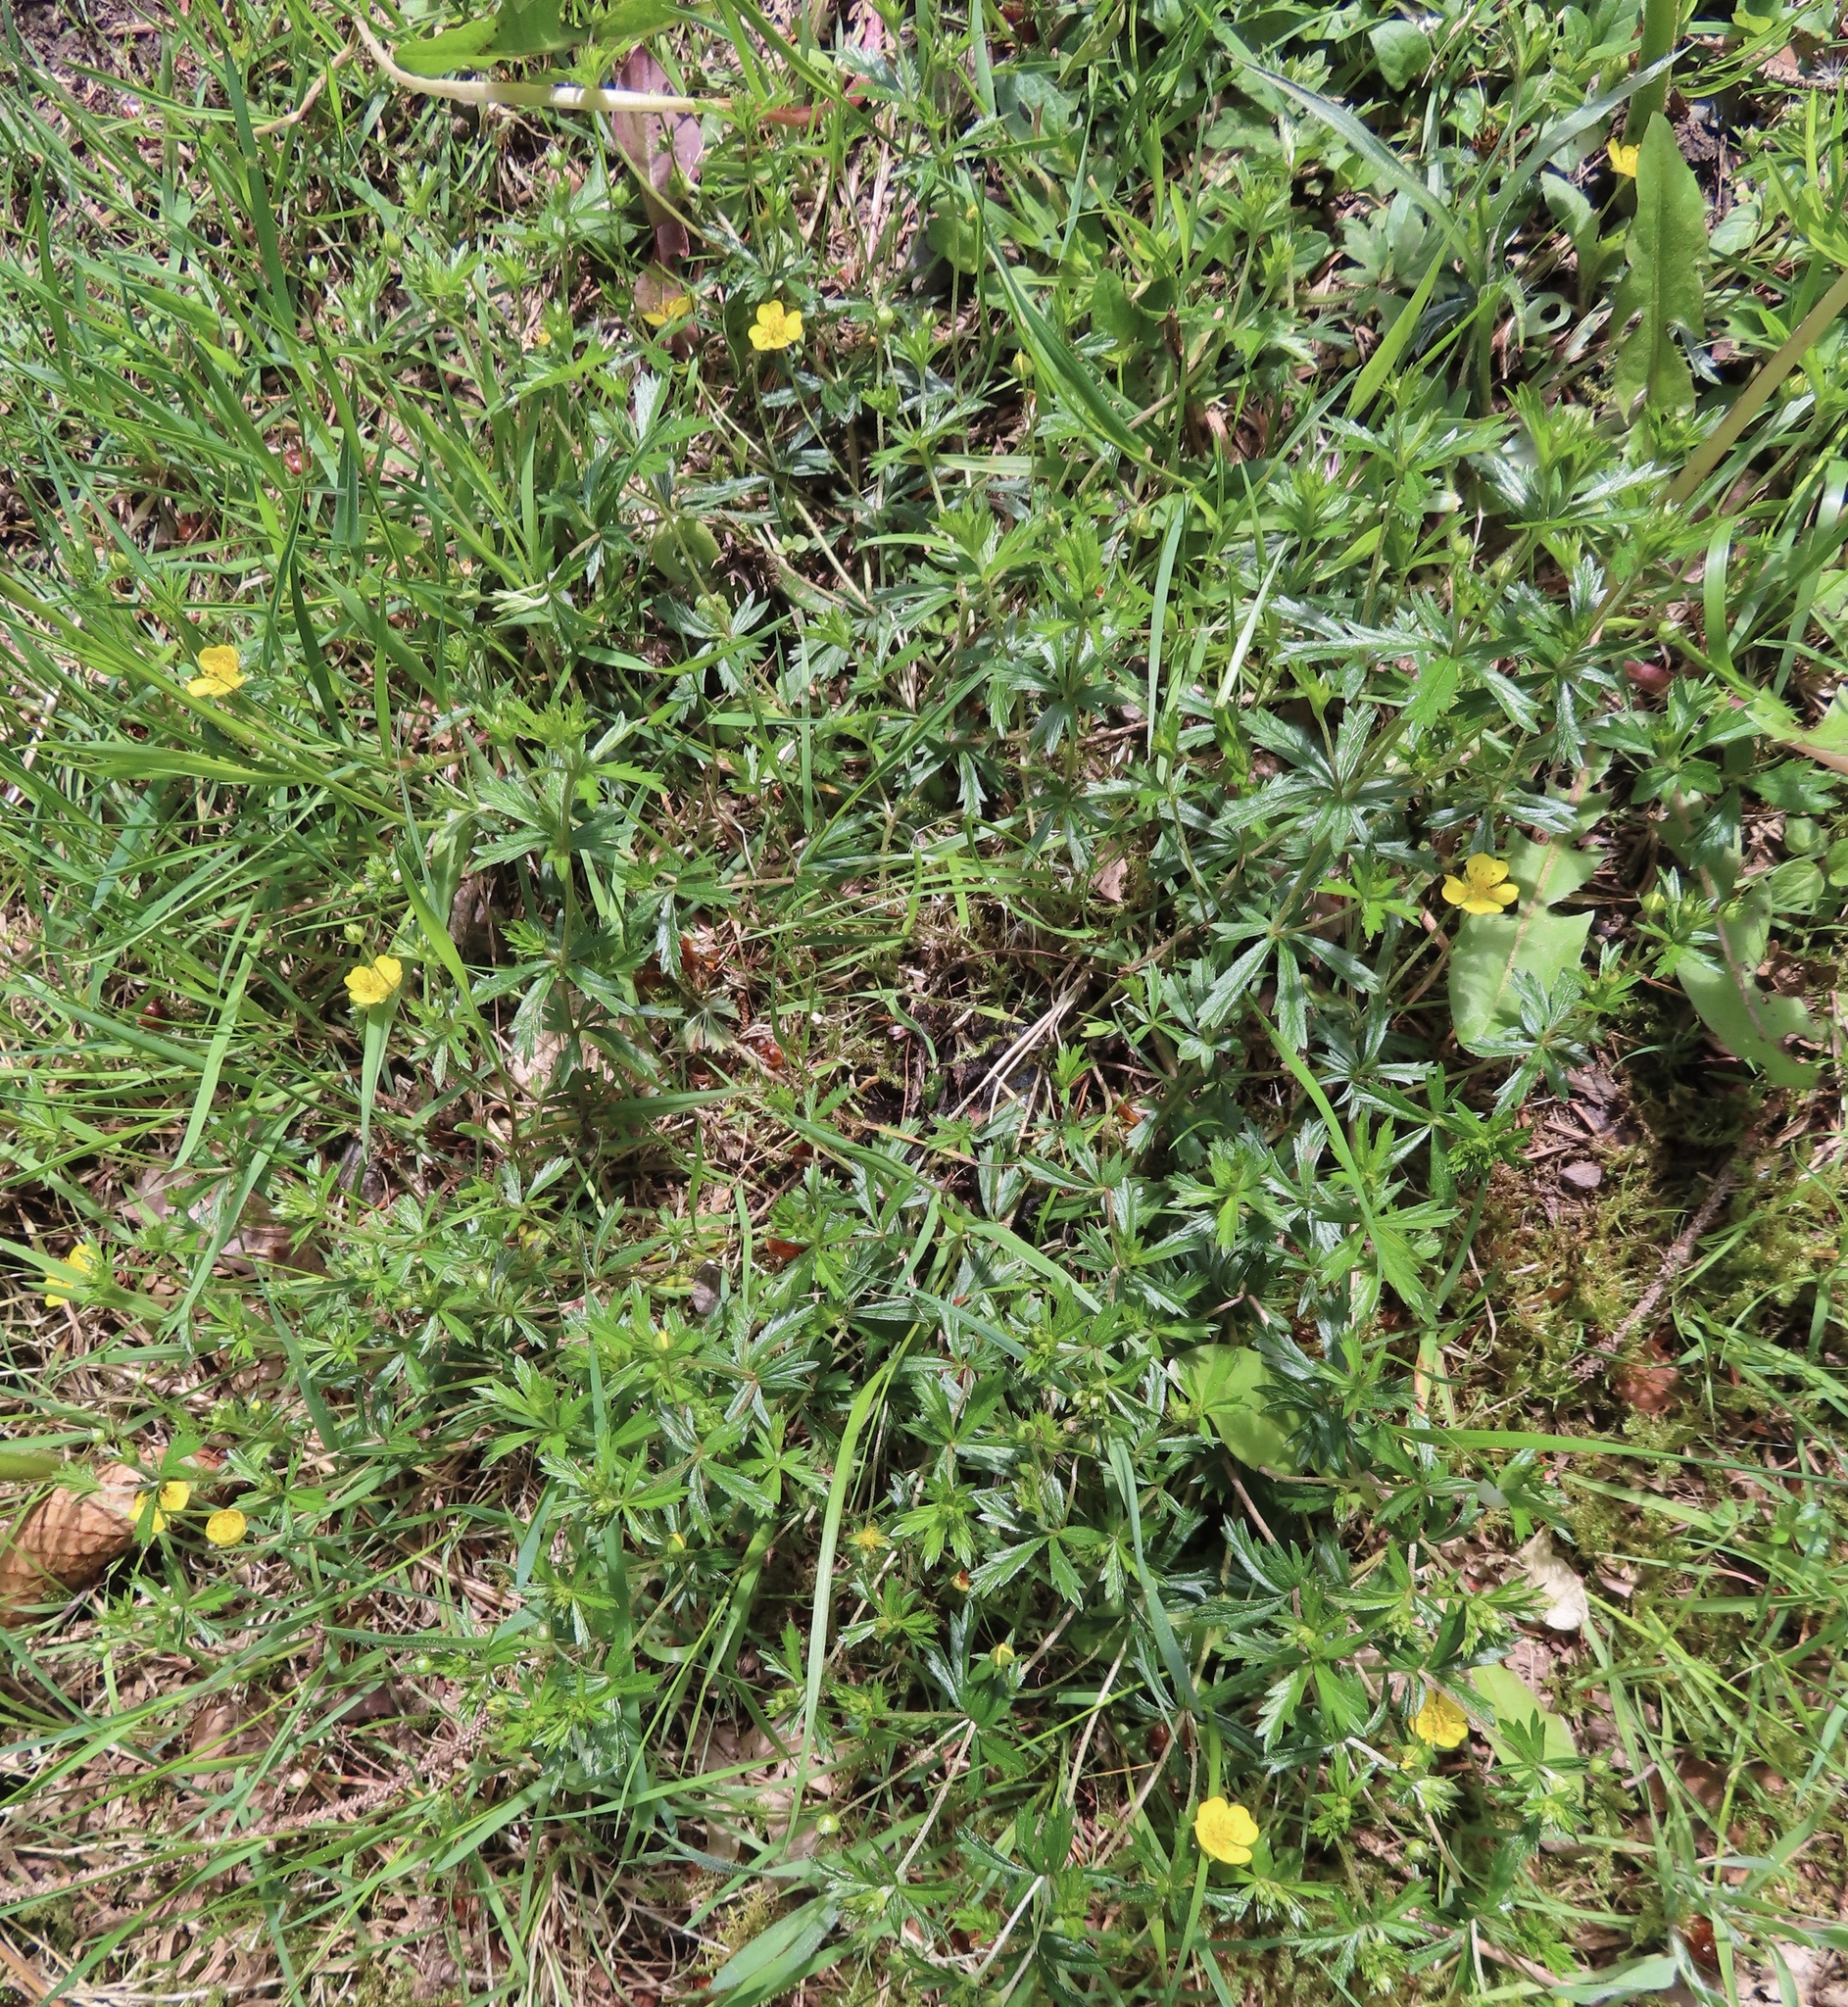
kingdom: Plantae
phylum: Tracheophyta
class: Magnoliopsida
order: Rosales
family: Rosaceae
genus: Potentilla
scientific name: Potentilla erecta
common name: Tormentil
